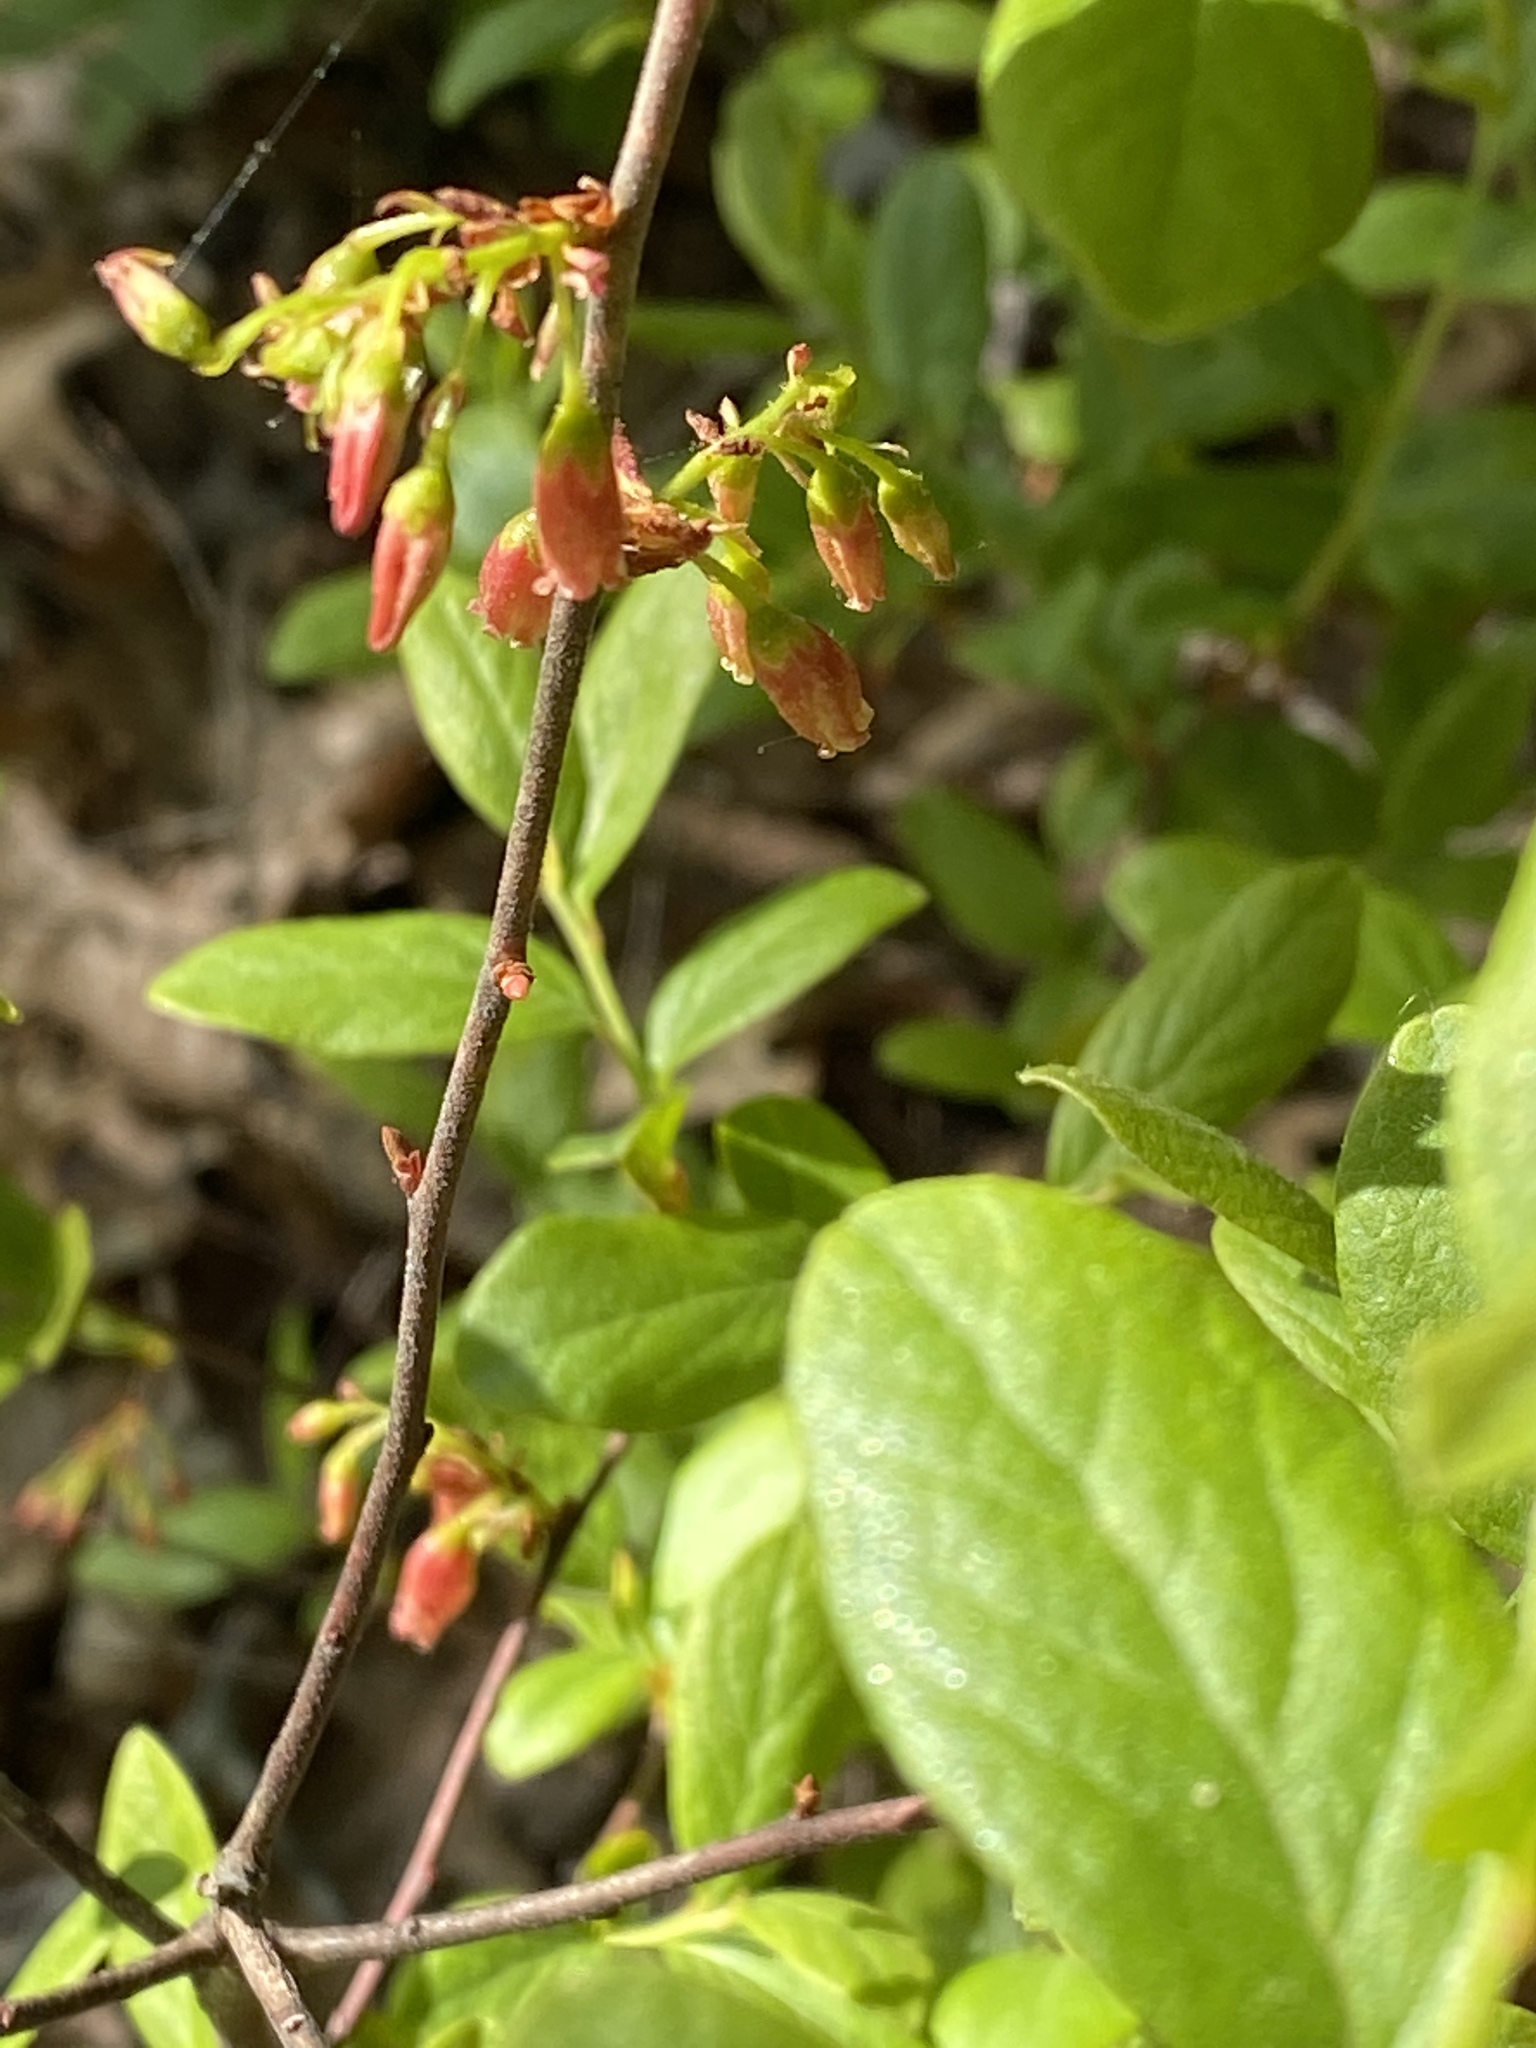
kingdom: Plantae
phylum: Tracheophyta
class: Magnoliopsida
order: Ericales
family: Ericaceae
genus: Gaylussacia
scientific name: Gaylussacia baccata
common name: Black huckleberry
